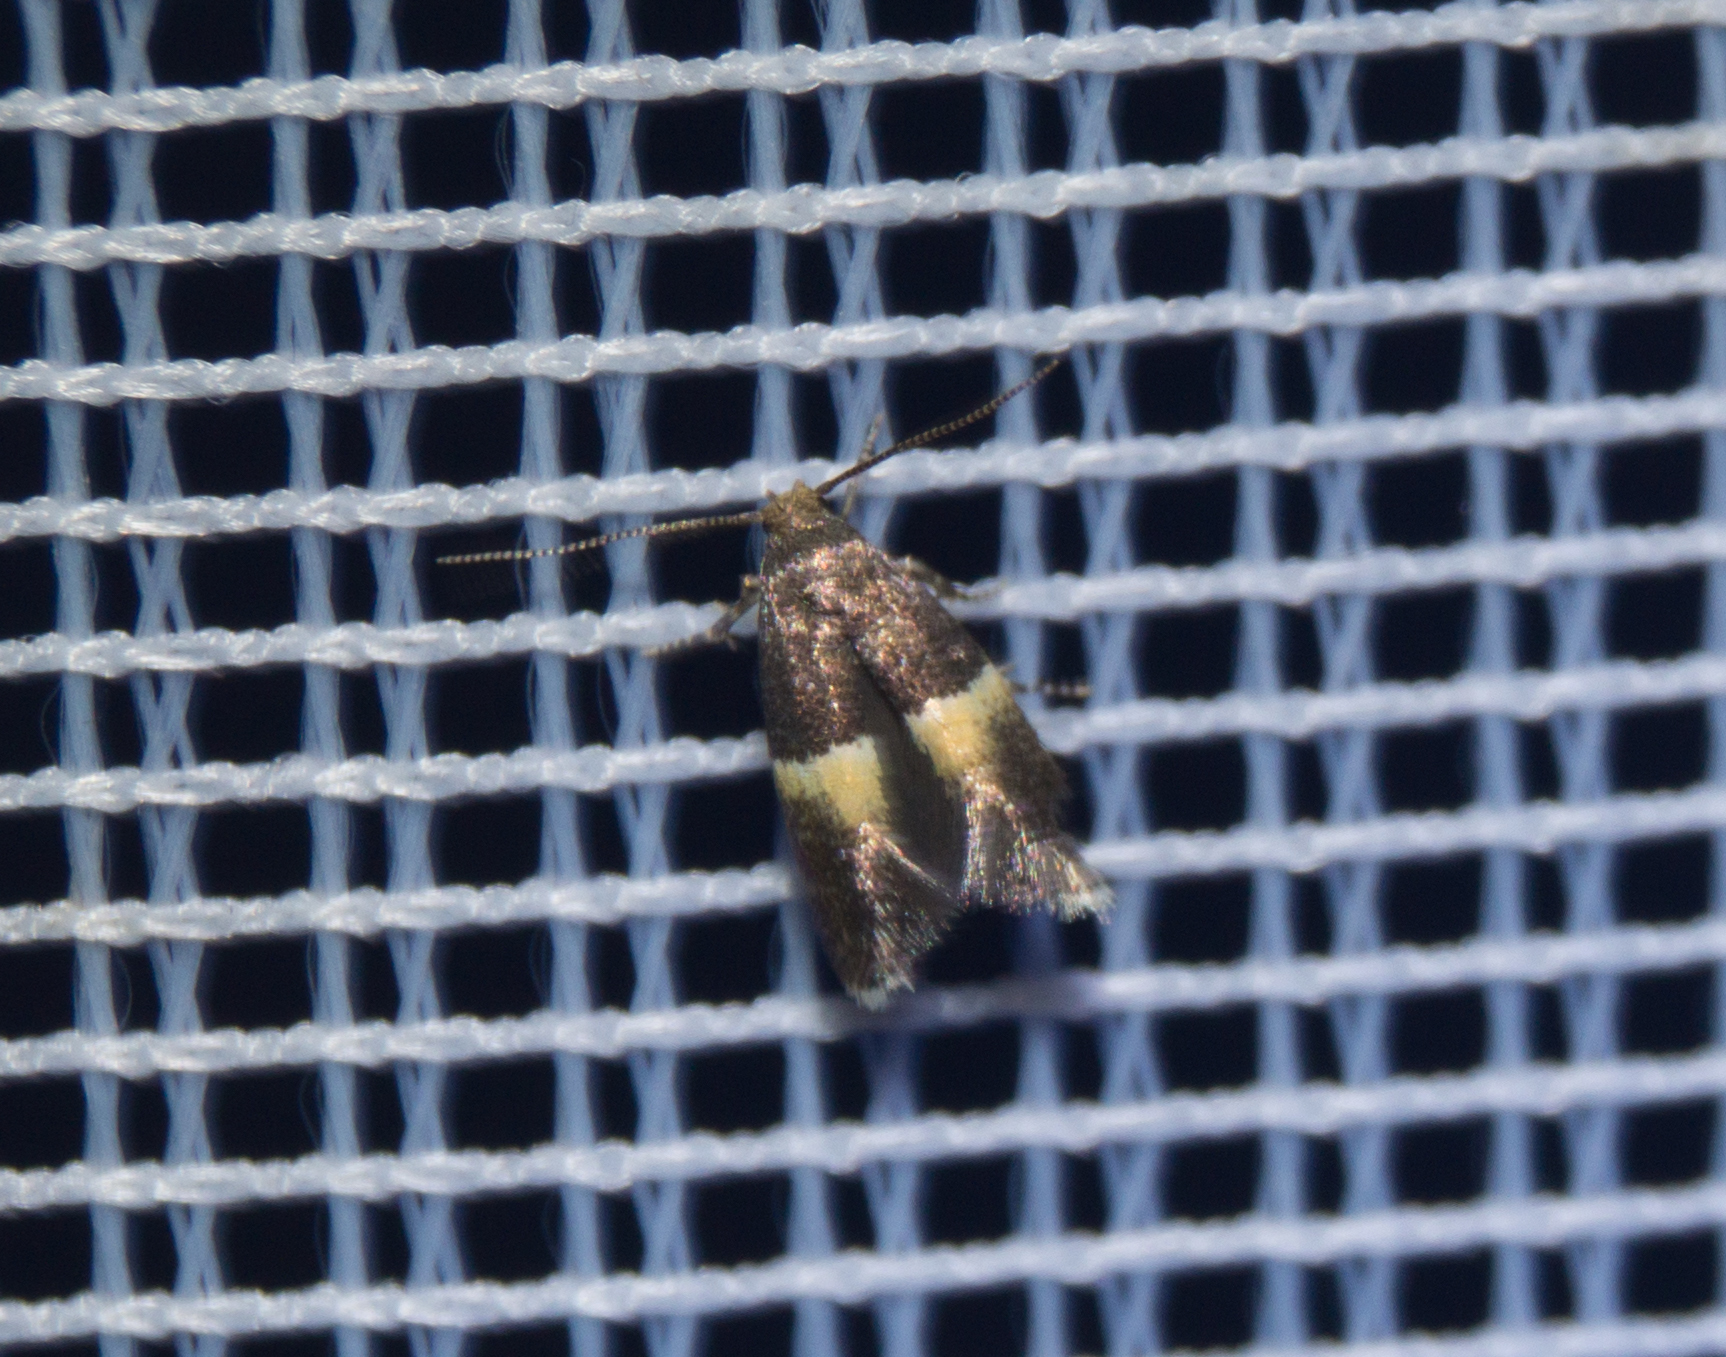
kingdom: Animalia
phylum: Arthropoda
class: Insecta
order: Lepidoptera
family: Elachistidae
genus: Elachista
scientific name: Elachista bisulcella
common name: Yellow-tipped dwarf
